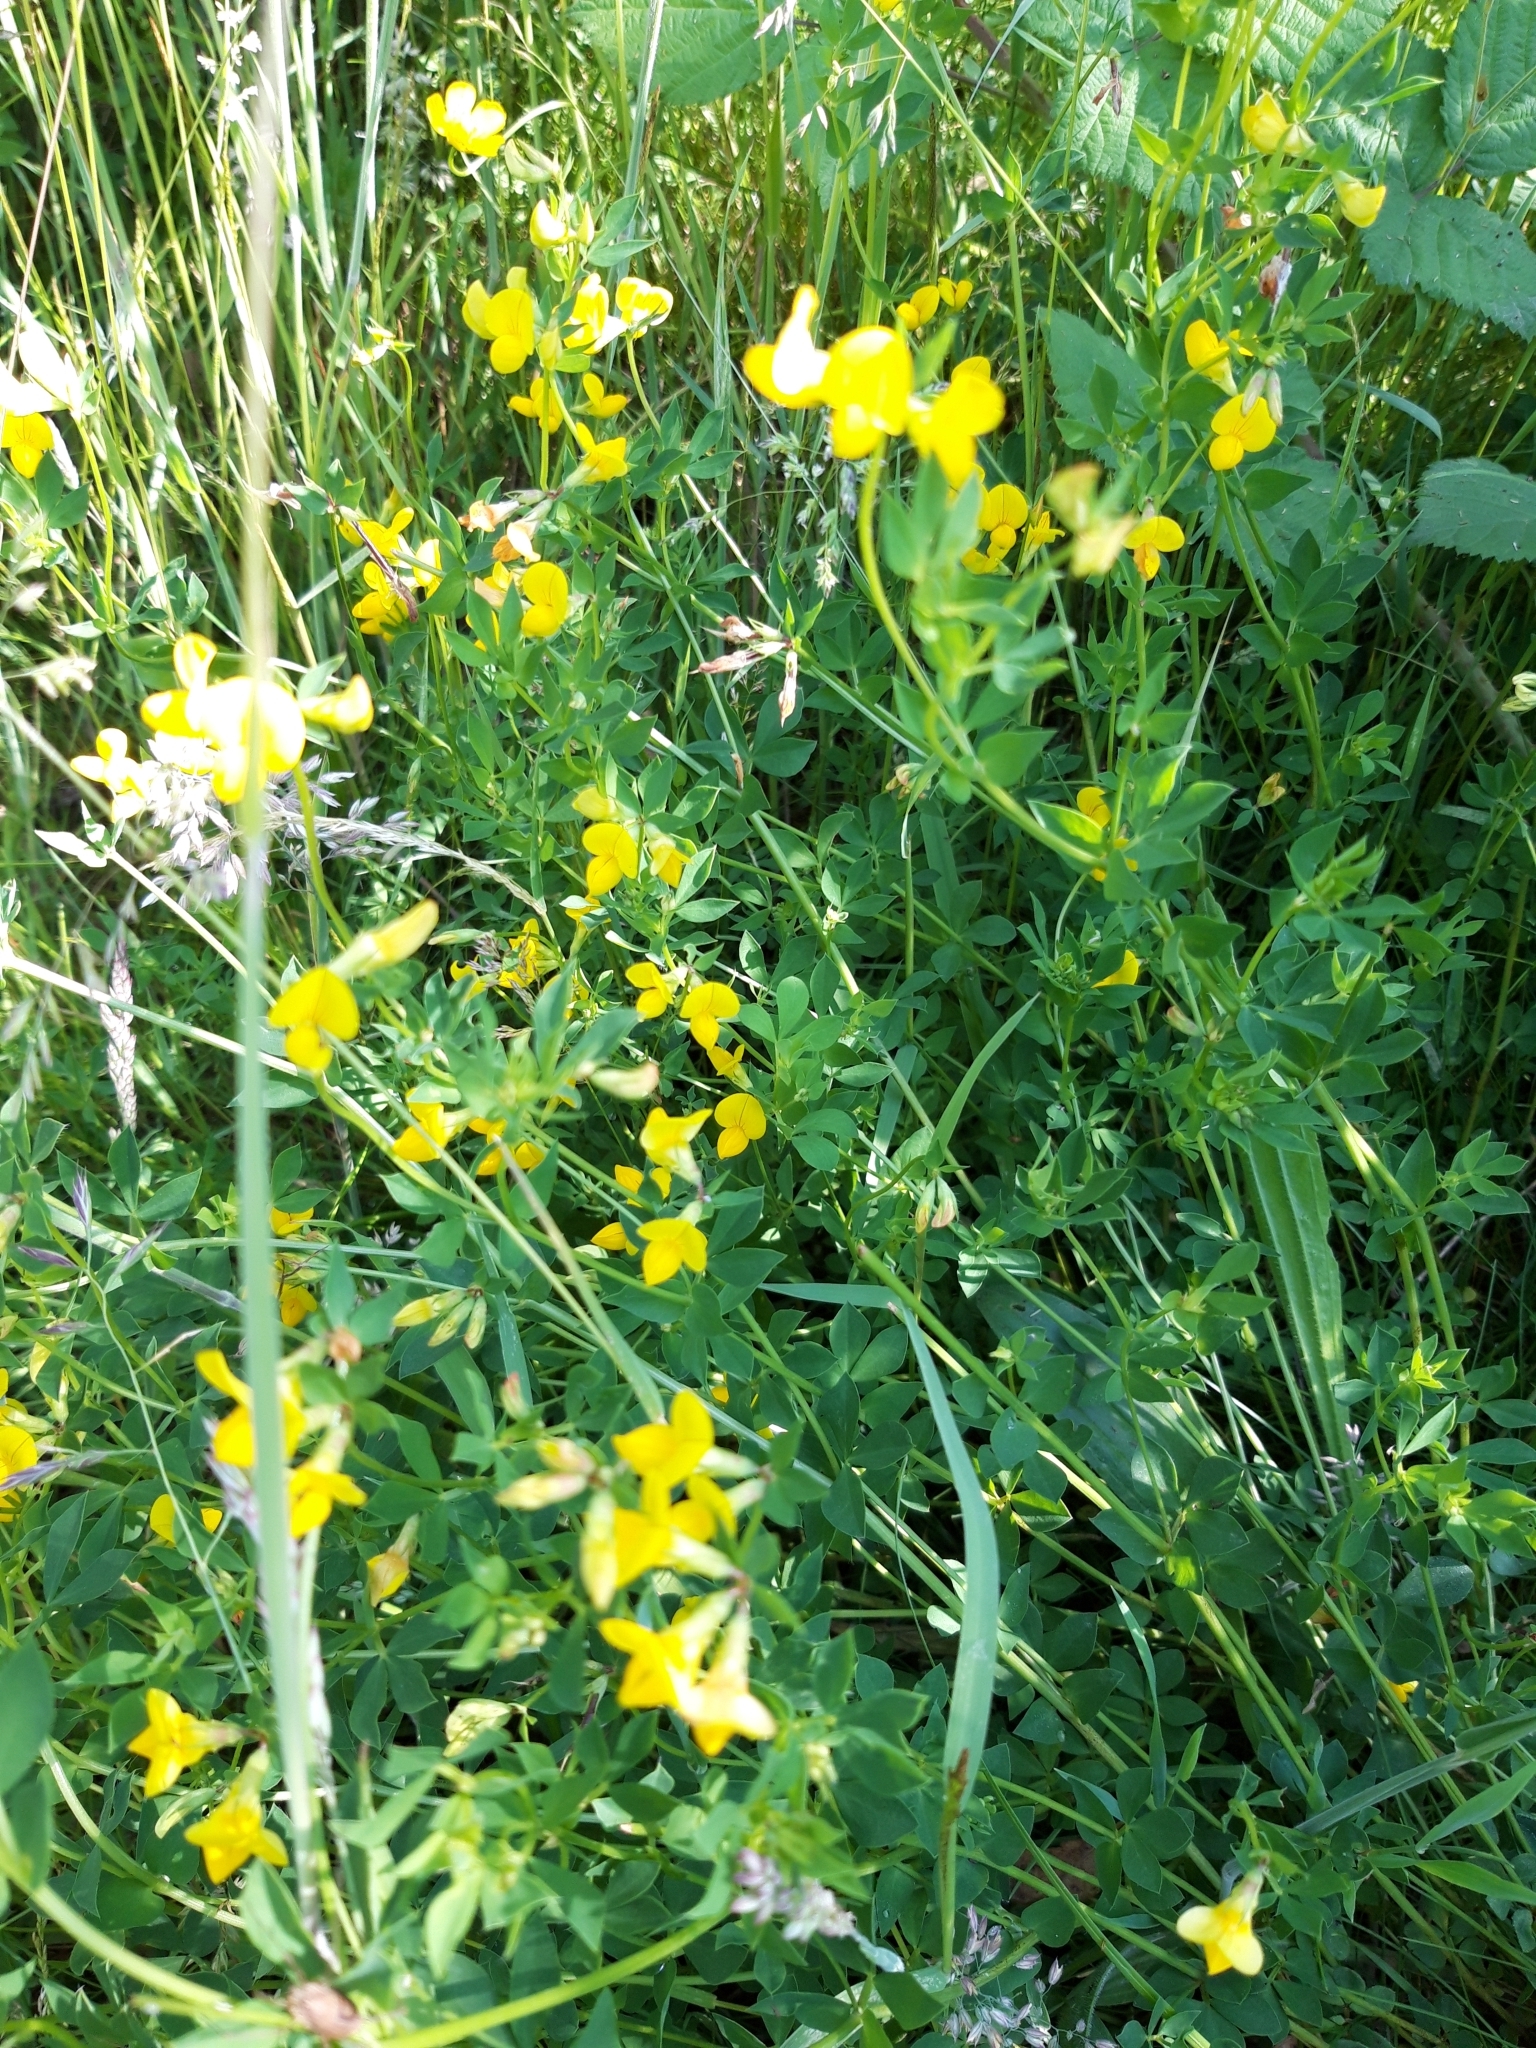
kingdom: Plantae
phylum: Tracheophyta
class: Magnoliopsida
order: Fabales
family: Fabaceae
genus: Lotus
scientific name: Lotus corniculatus
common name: Common bird's-foot-trefoil
